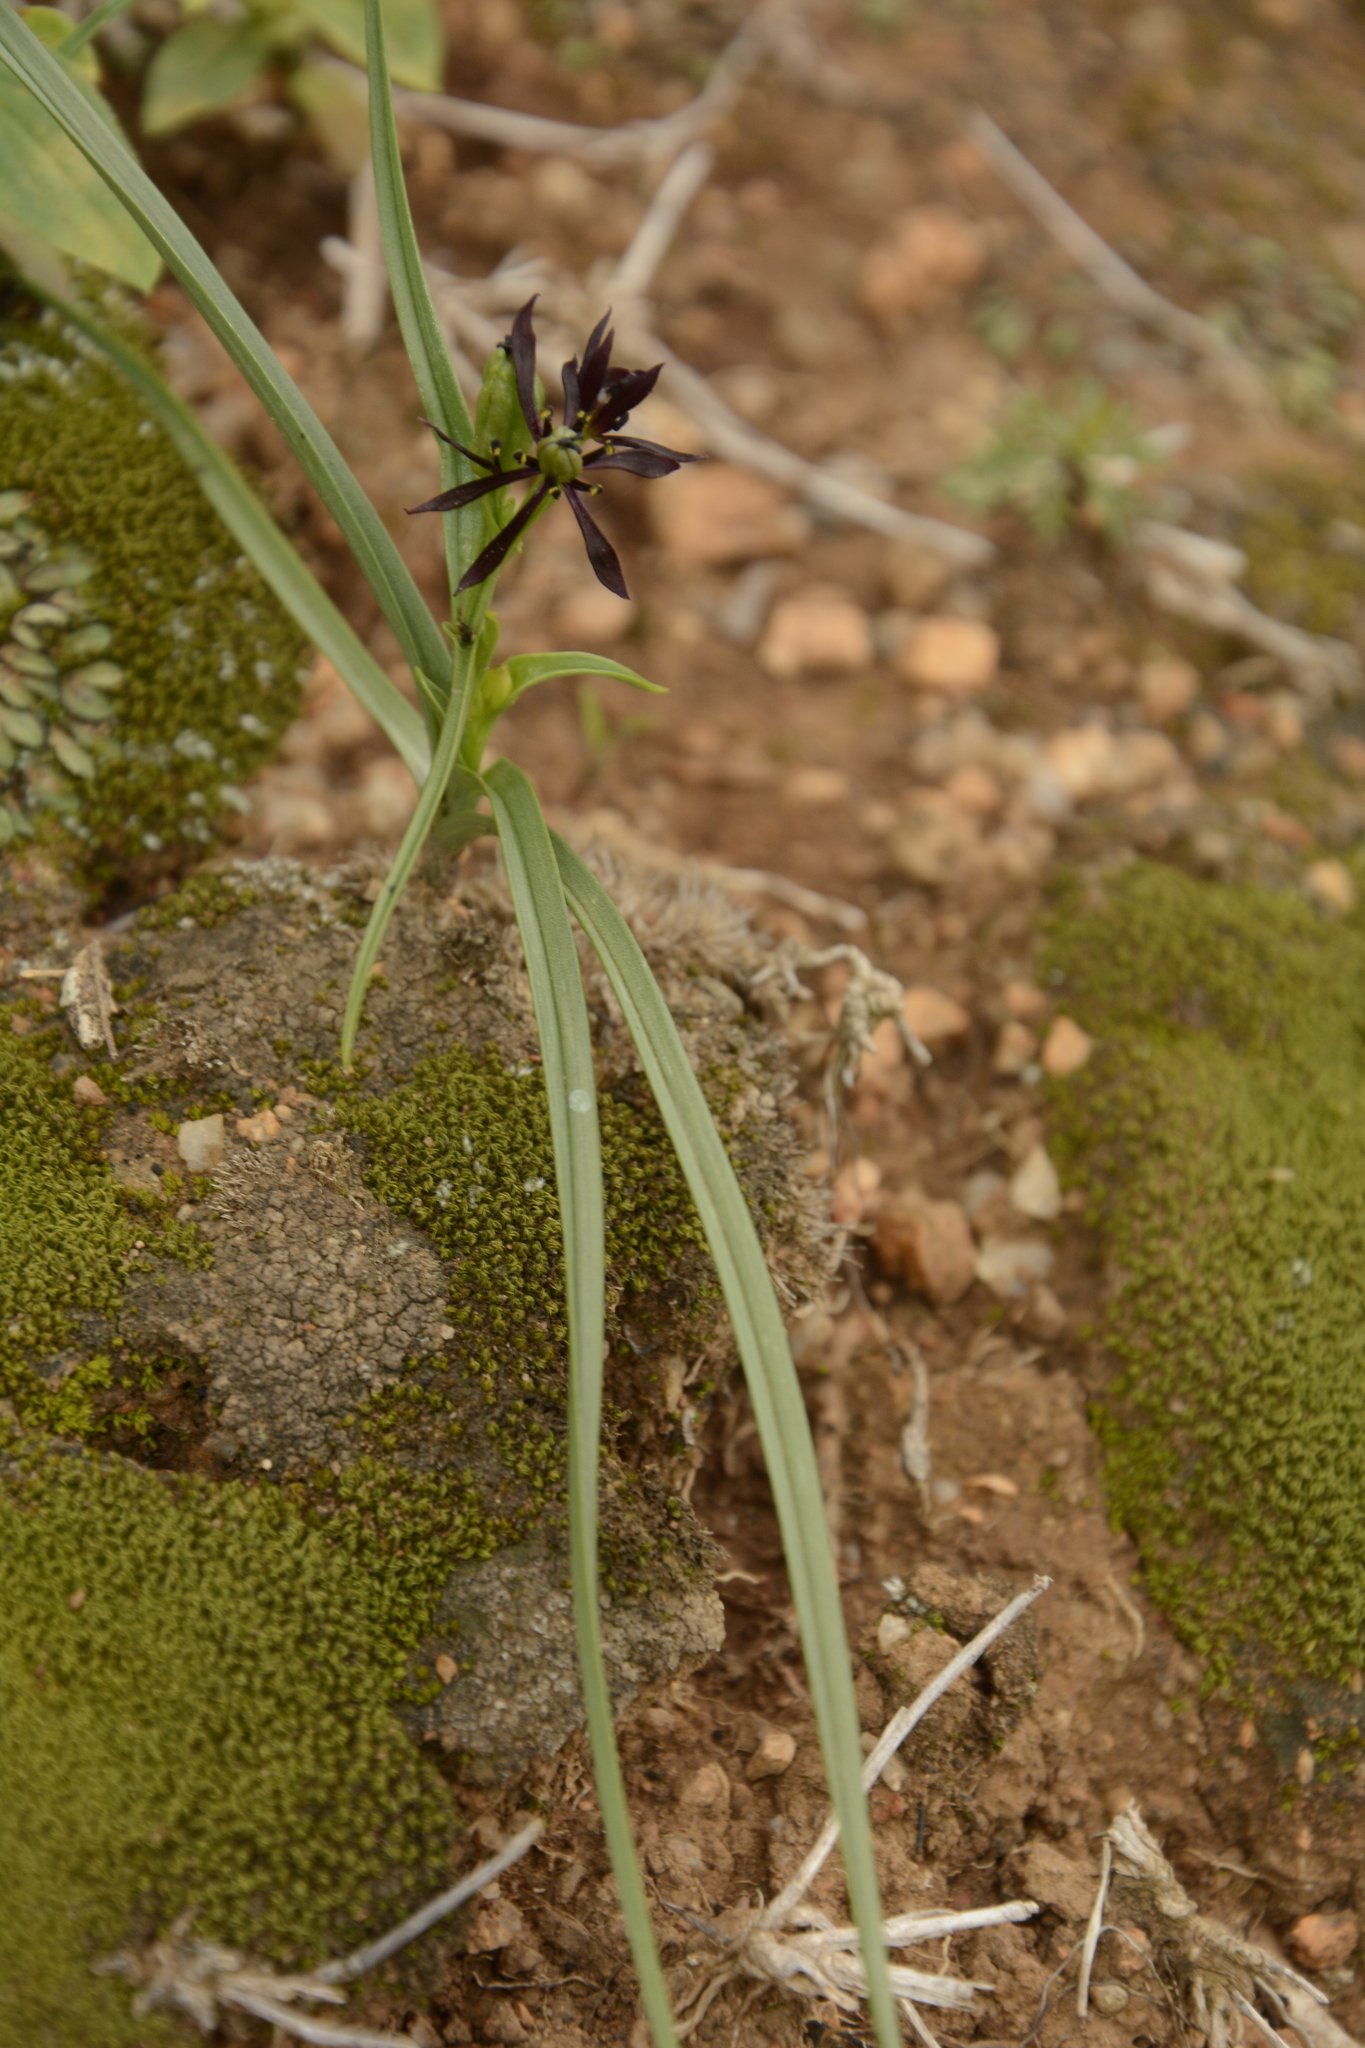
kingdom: Plantae
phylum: Tracheophyta
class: Liliopsida
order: Liliales
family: Colchicaceae
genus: Iphigenia
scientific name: Iphigenia magnifica
